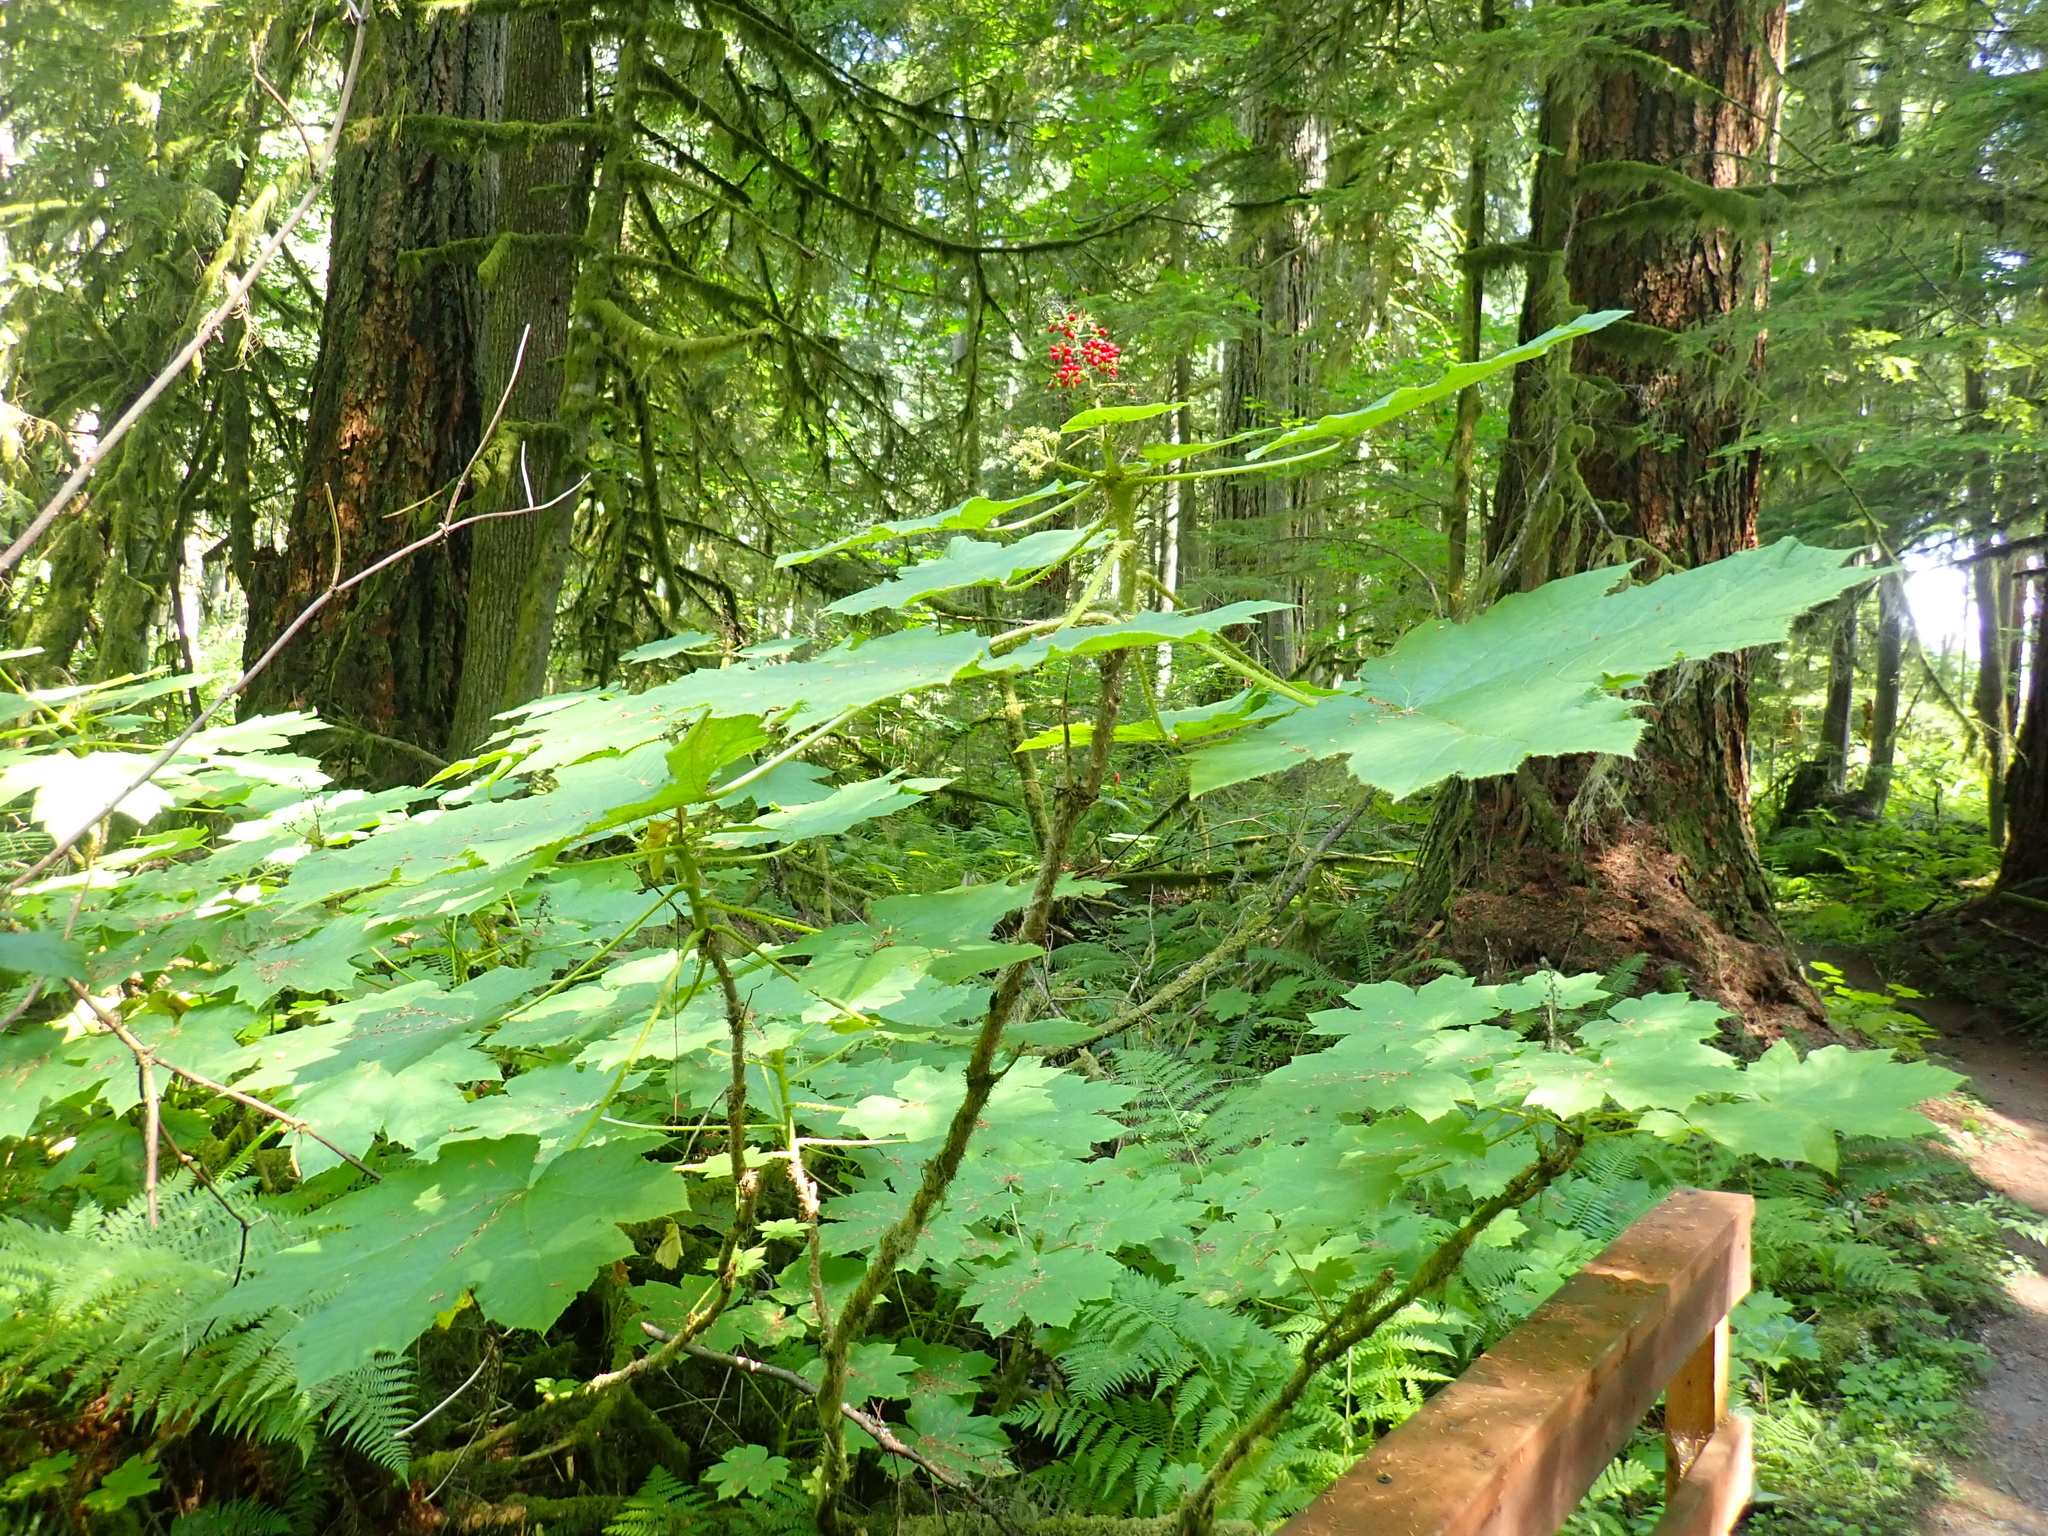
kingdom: Plantae
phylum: Tracheophyta
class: Magnoliopsida
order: Apiales
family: Araliaceae
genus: Oplopanax
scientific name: Oplopanax horridus
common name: Devil's walking-stick
